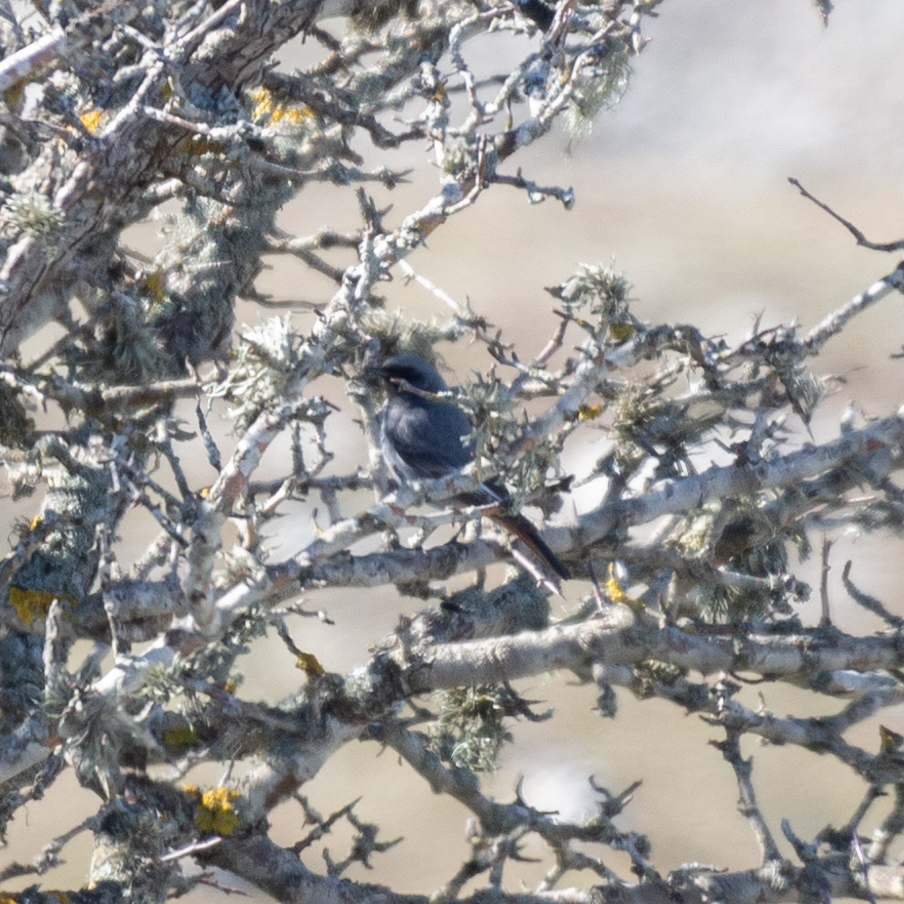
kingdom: Animalia
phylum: Chordata
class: Aves
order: Passeriformes
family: Muscicapidae
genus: Phoenicurus
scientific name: Phoenicurus ochruros
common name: Black redstart
